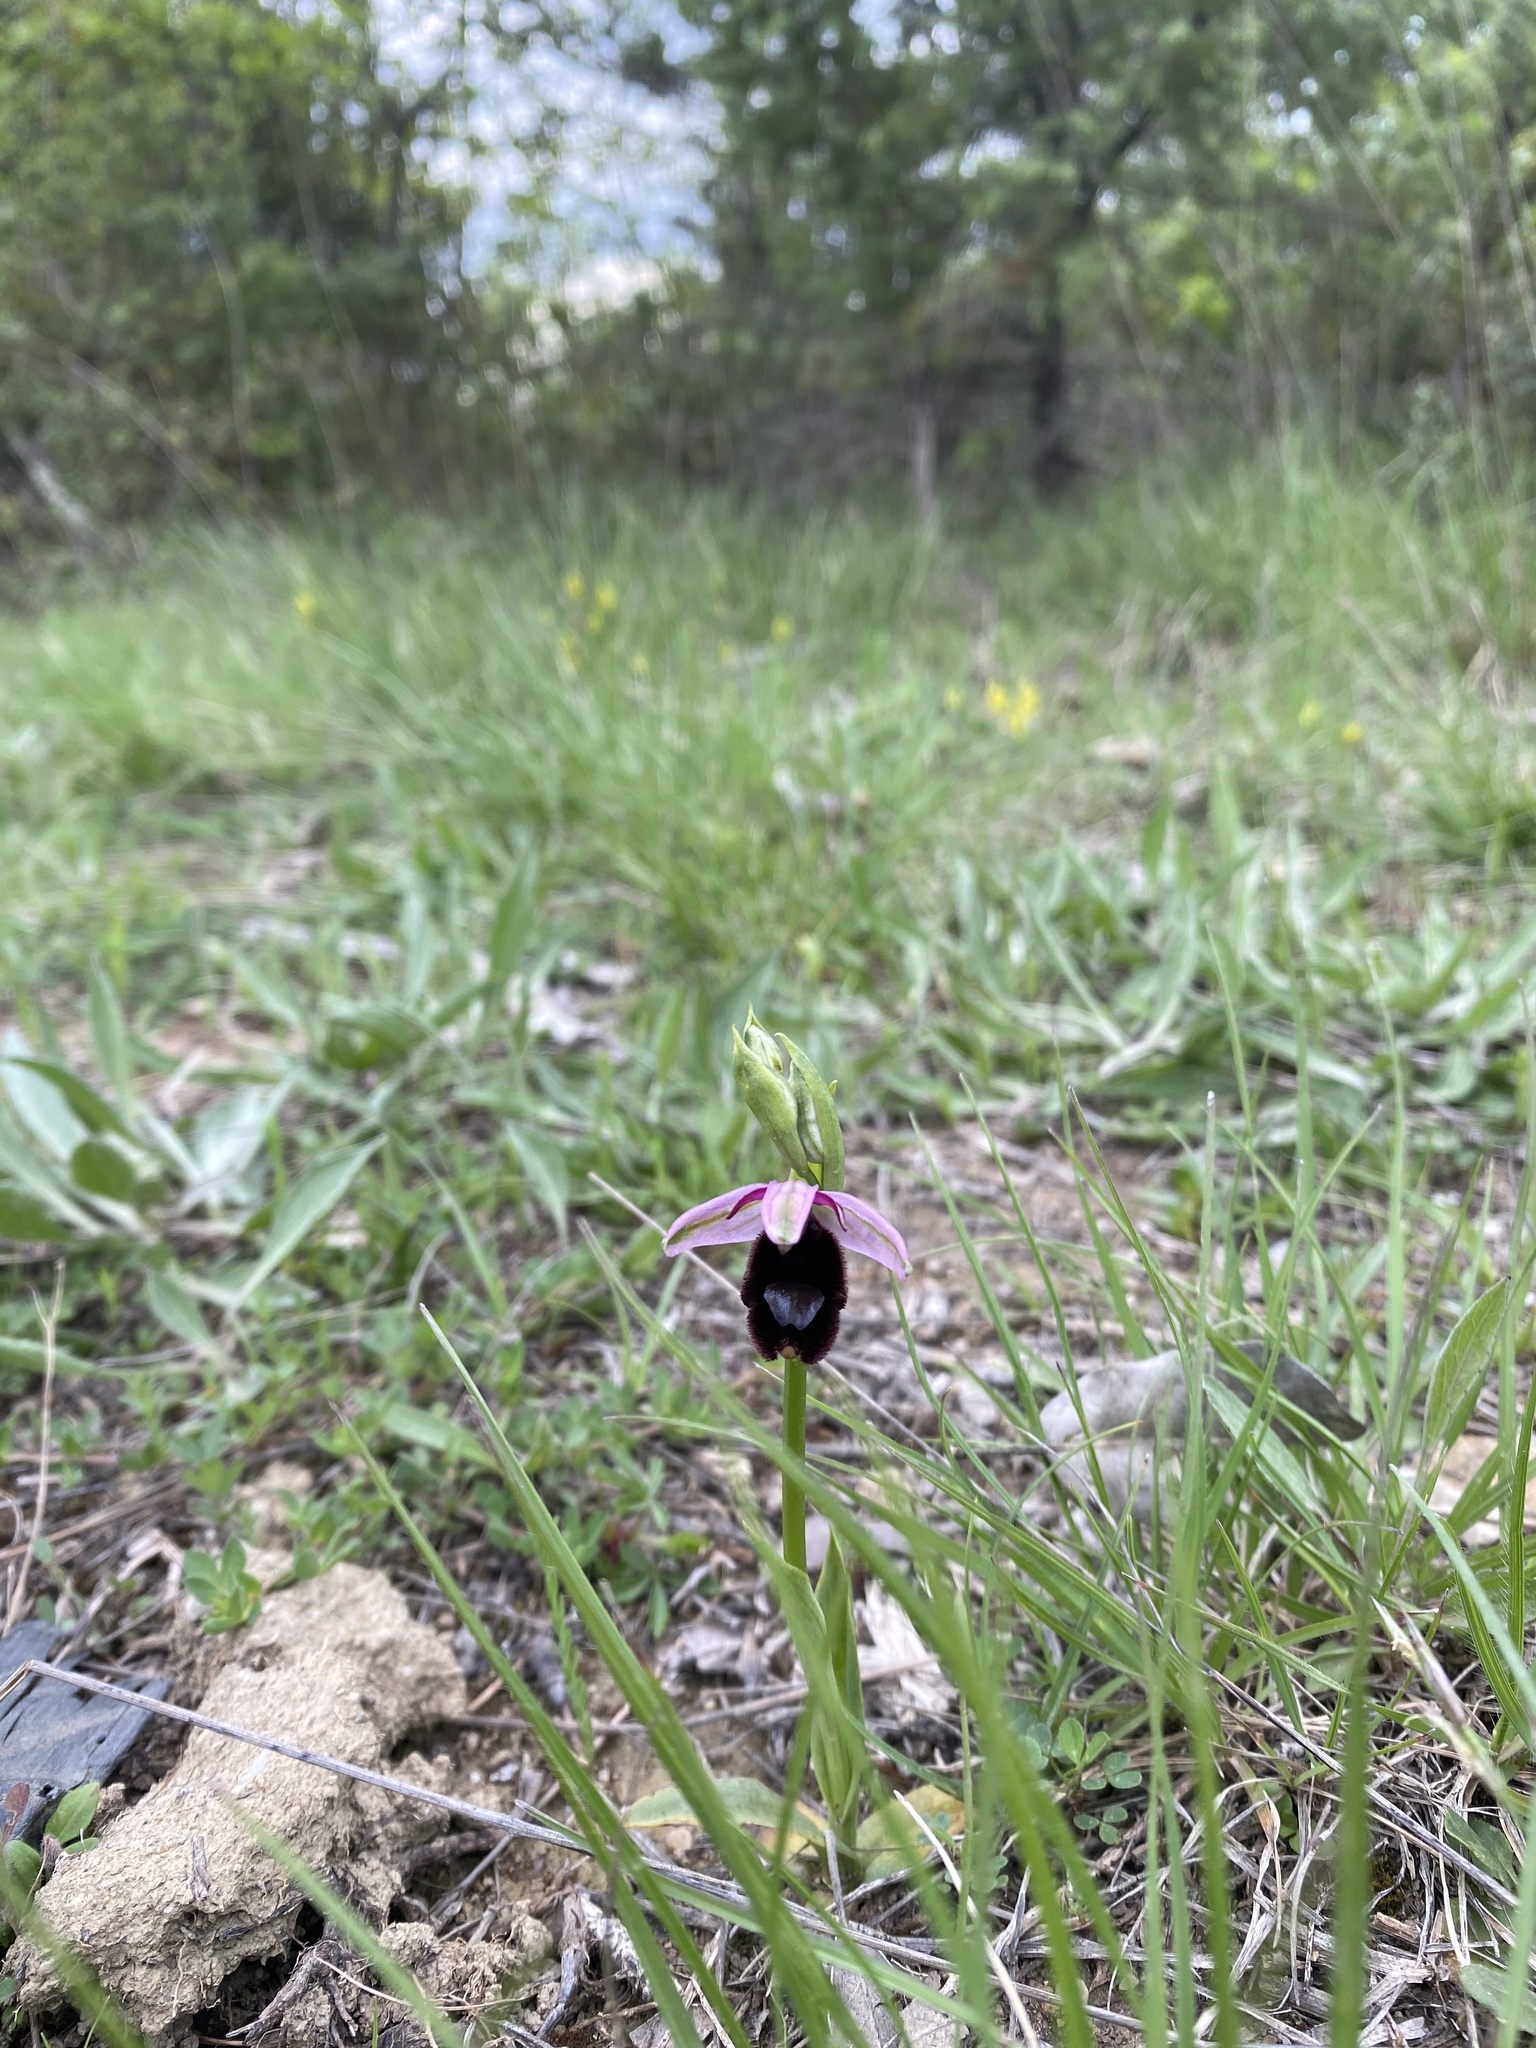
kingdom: Plantae
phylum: Tracheophyta
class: Liliopsida
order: Asparagales
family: Orchidaceae
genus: Ophrys
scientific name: Ophrys bertolonii
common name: Bertoloni's bee orchid
